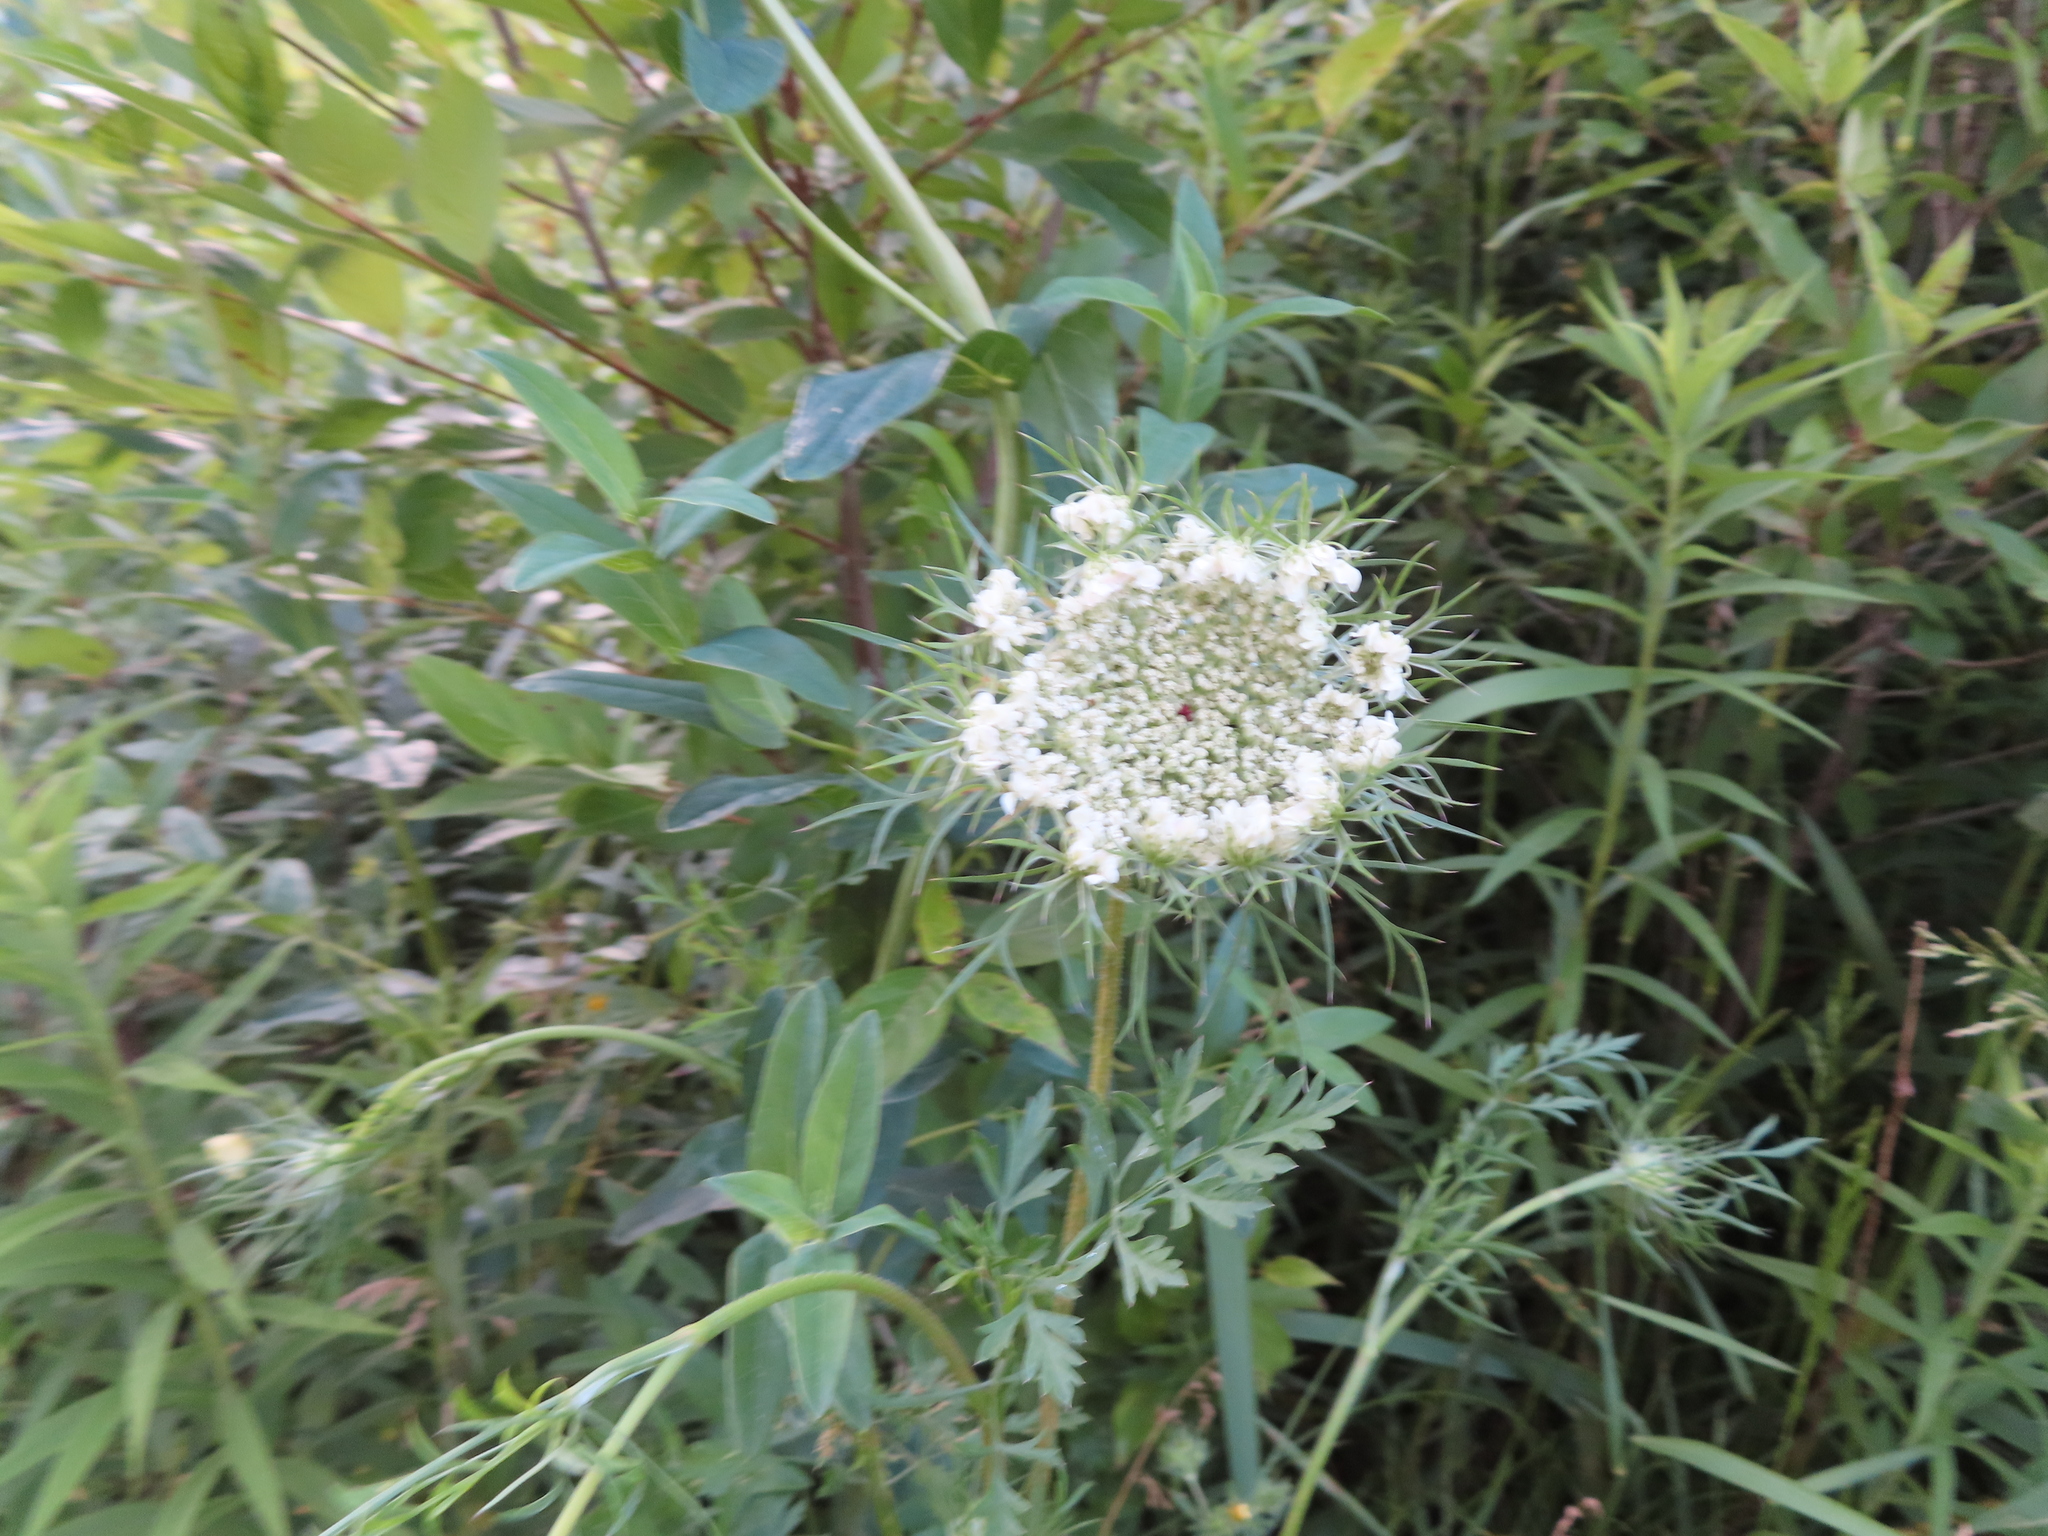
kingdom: Plantae
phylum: Tracheophyta
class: Magnoliopsida
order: Apiales
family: Apiaceae
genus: Daucus
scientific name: Daucus carota
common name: Wild carrot
